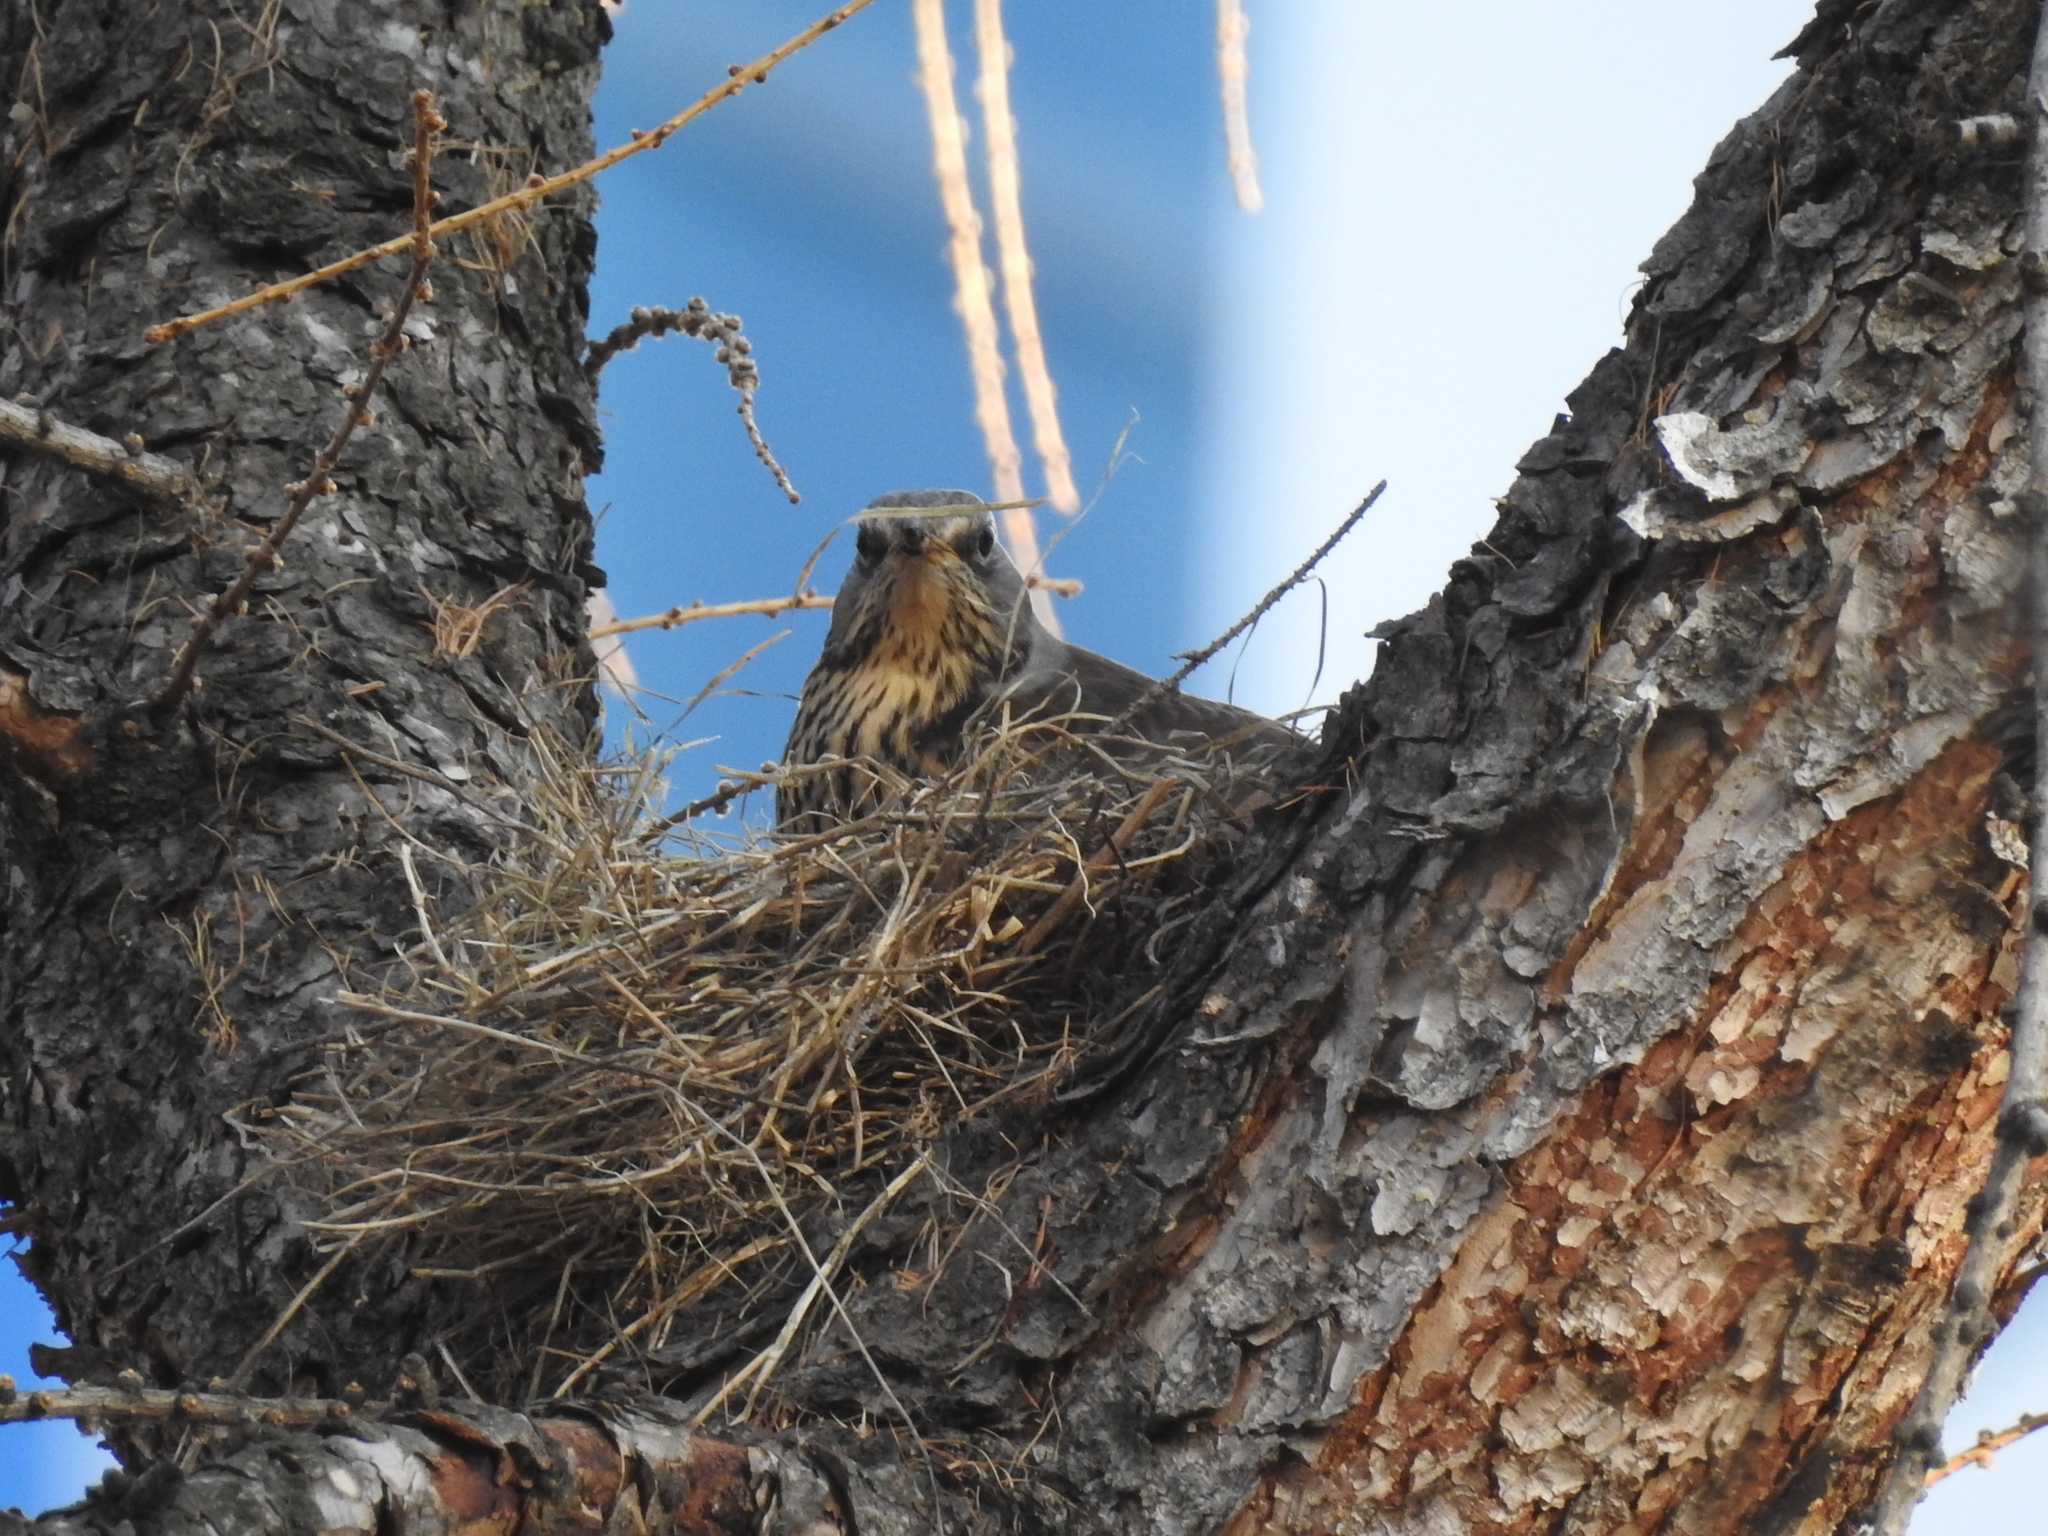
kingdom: Animalia
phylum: Chordata
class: Aves
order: Passeriformes
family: Turdidae
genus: Turdus
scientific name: Turdus pilaris
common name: Fieldfare
